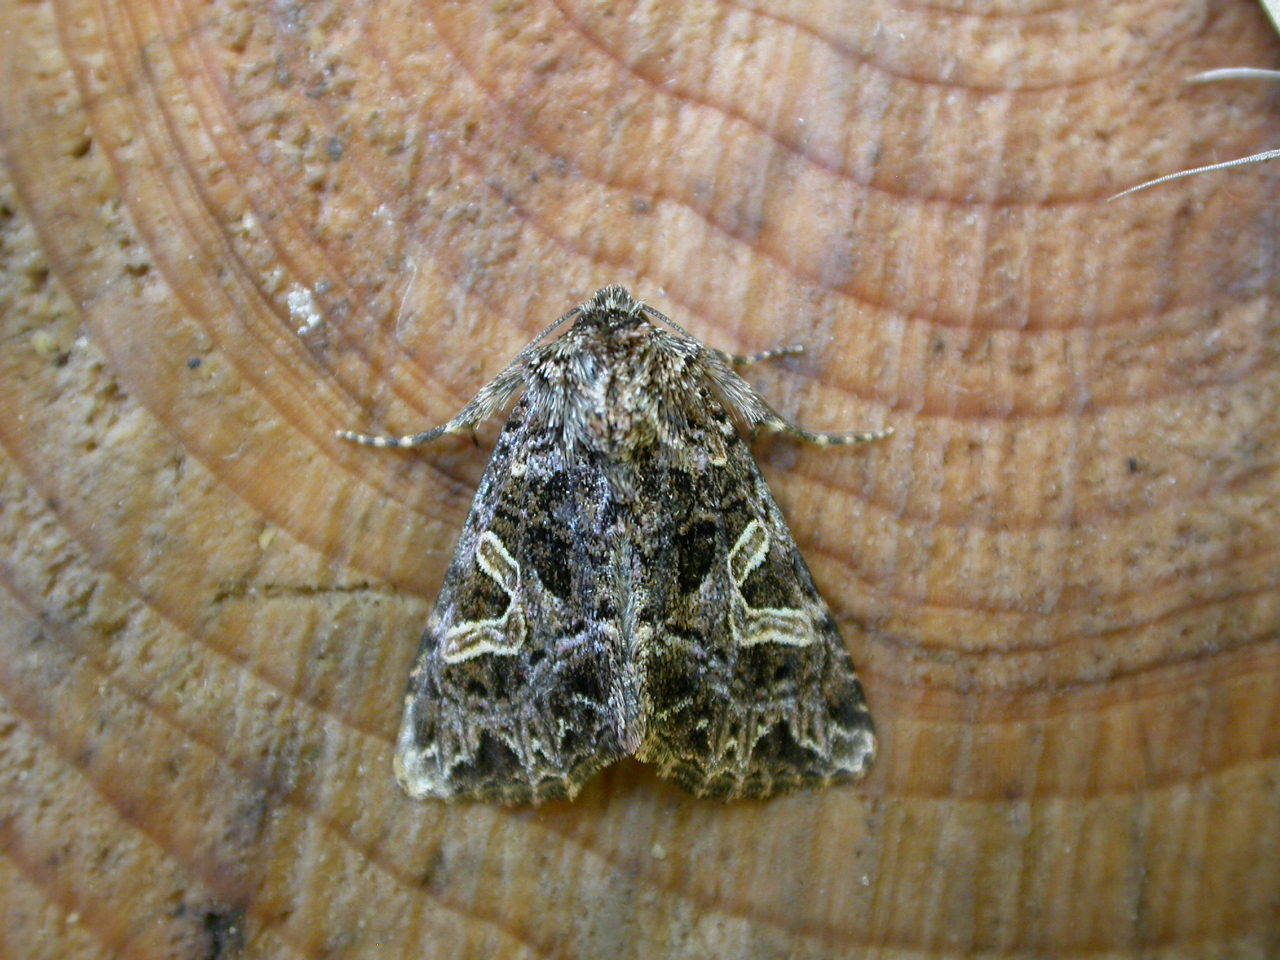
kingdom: Animalia
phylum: Arthropoda
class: Insecta
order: Lepidoptera
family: Noctuidae
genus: Sideridis
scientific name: Sideridis rivularis
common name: Campion
